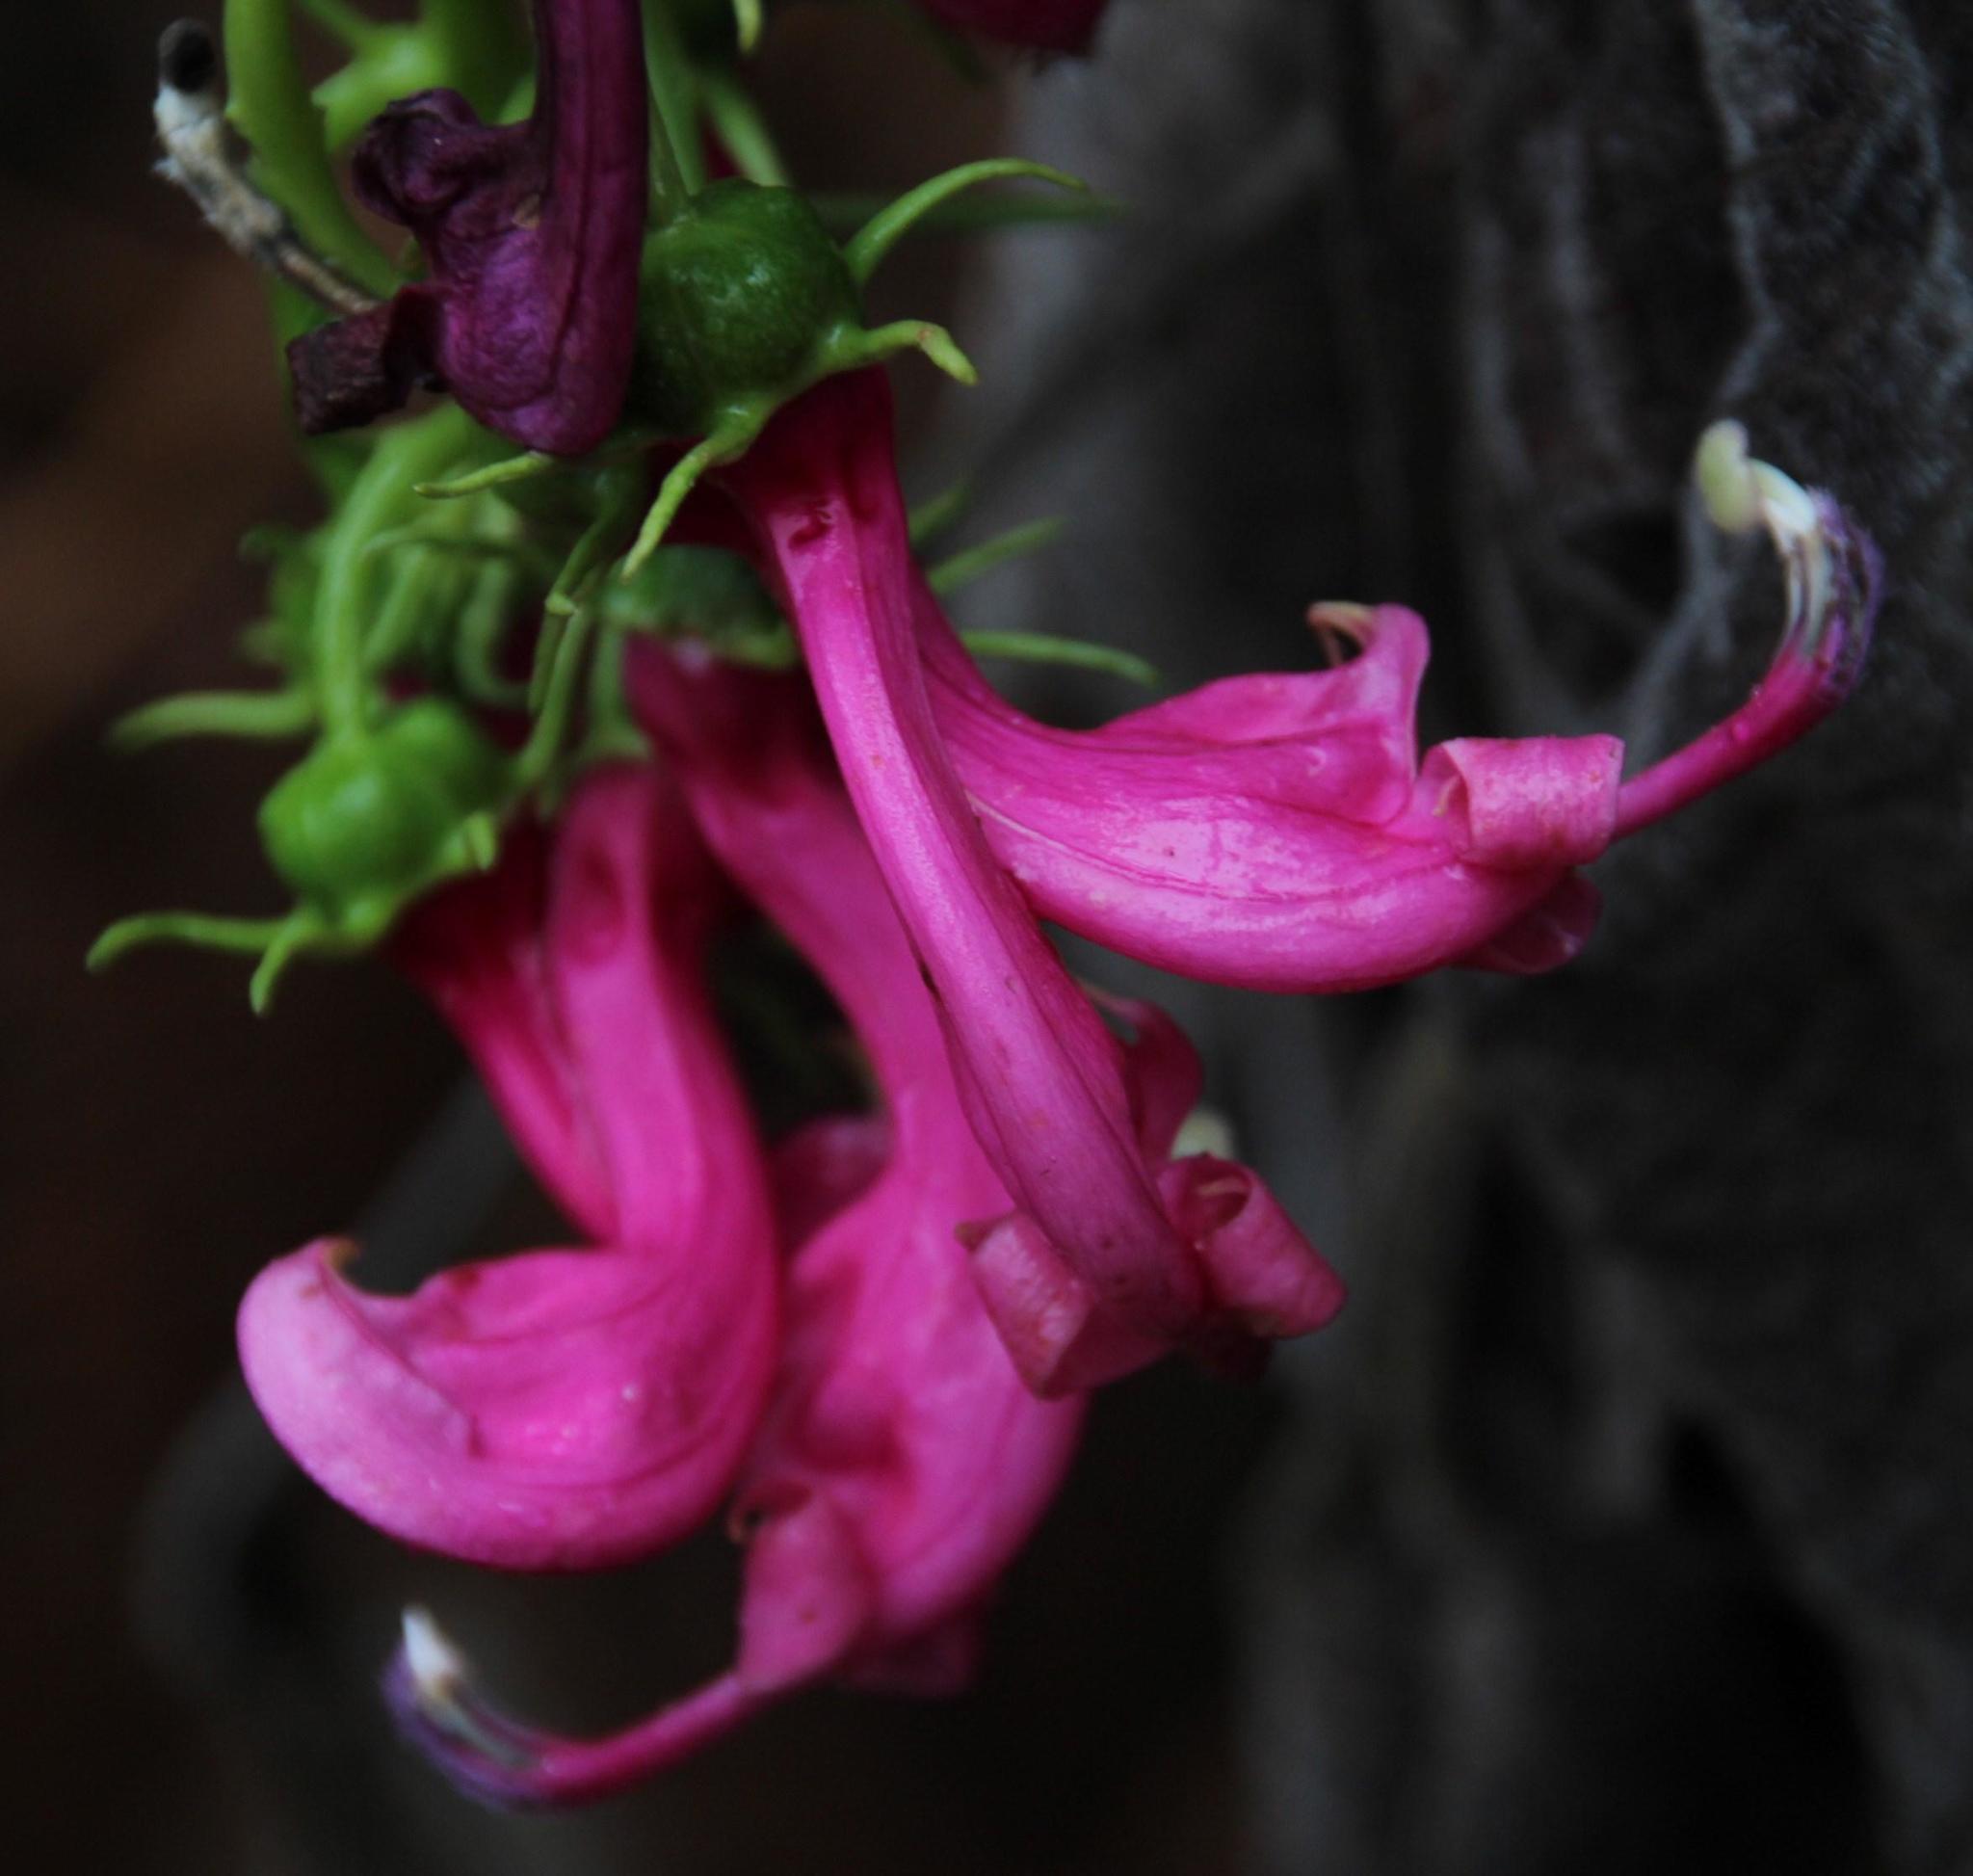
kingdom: Plantae
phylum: Tracheophyta
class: Magnoliopsida
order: Asterales
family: Campanulaceae
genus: Centropogon
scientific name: Centropogon urubambae
